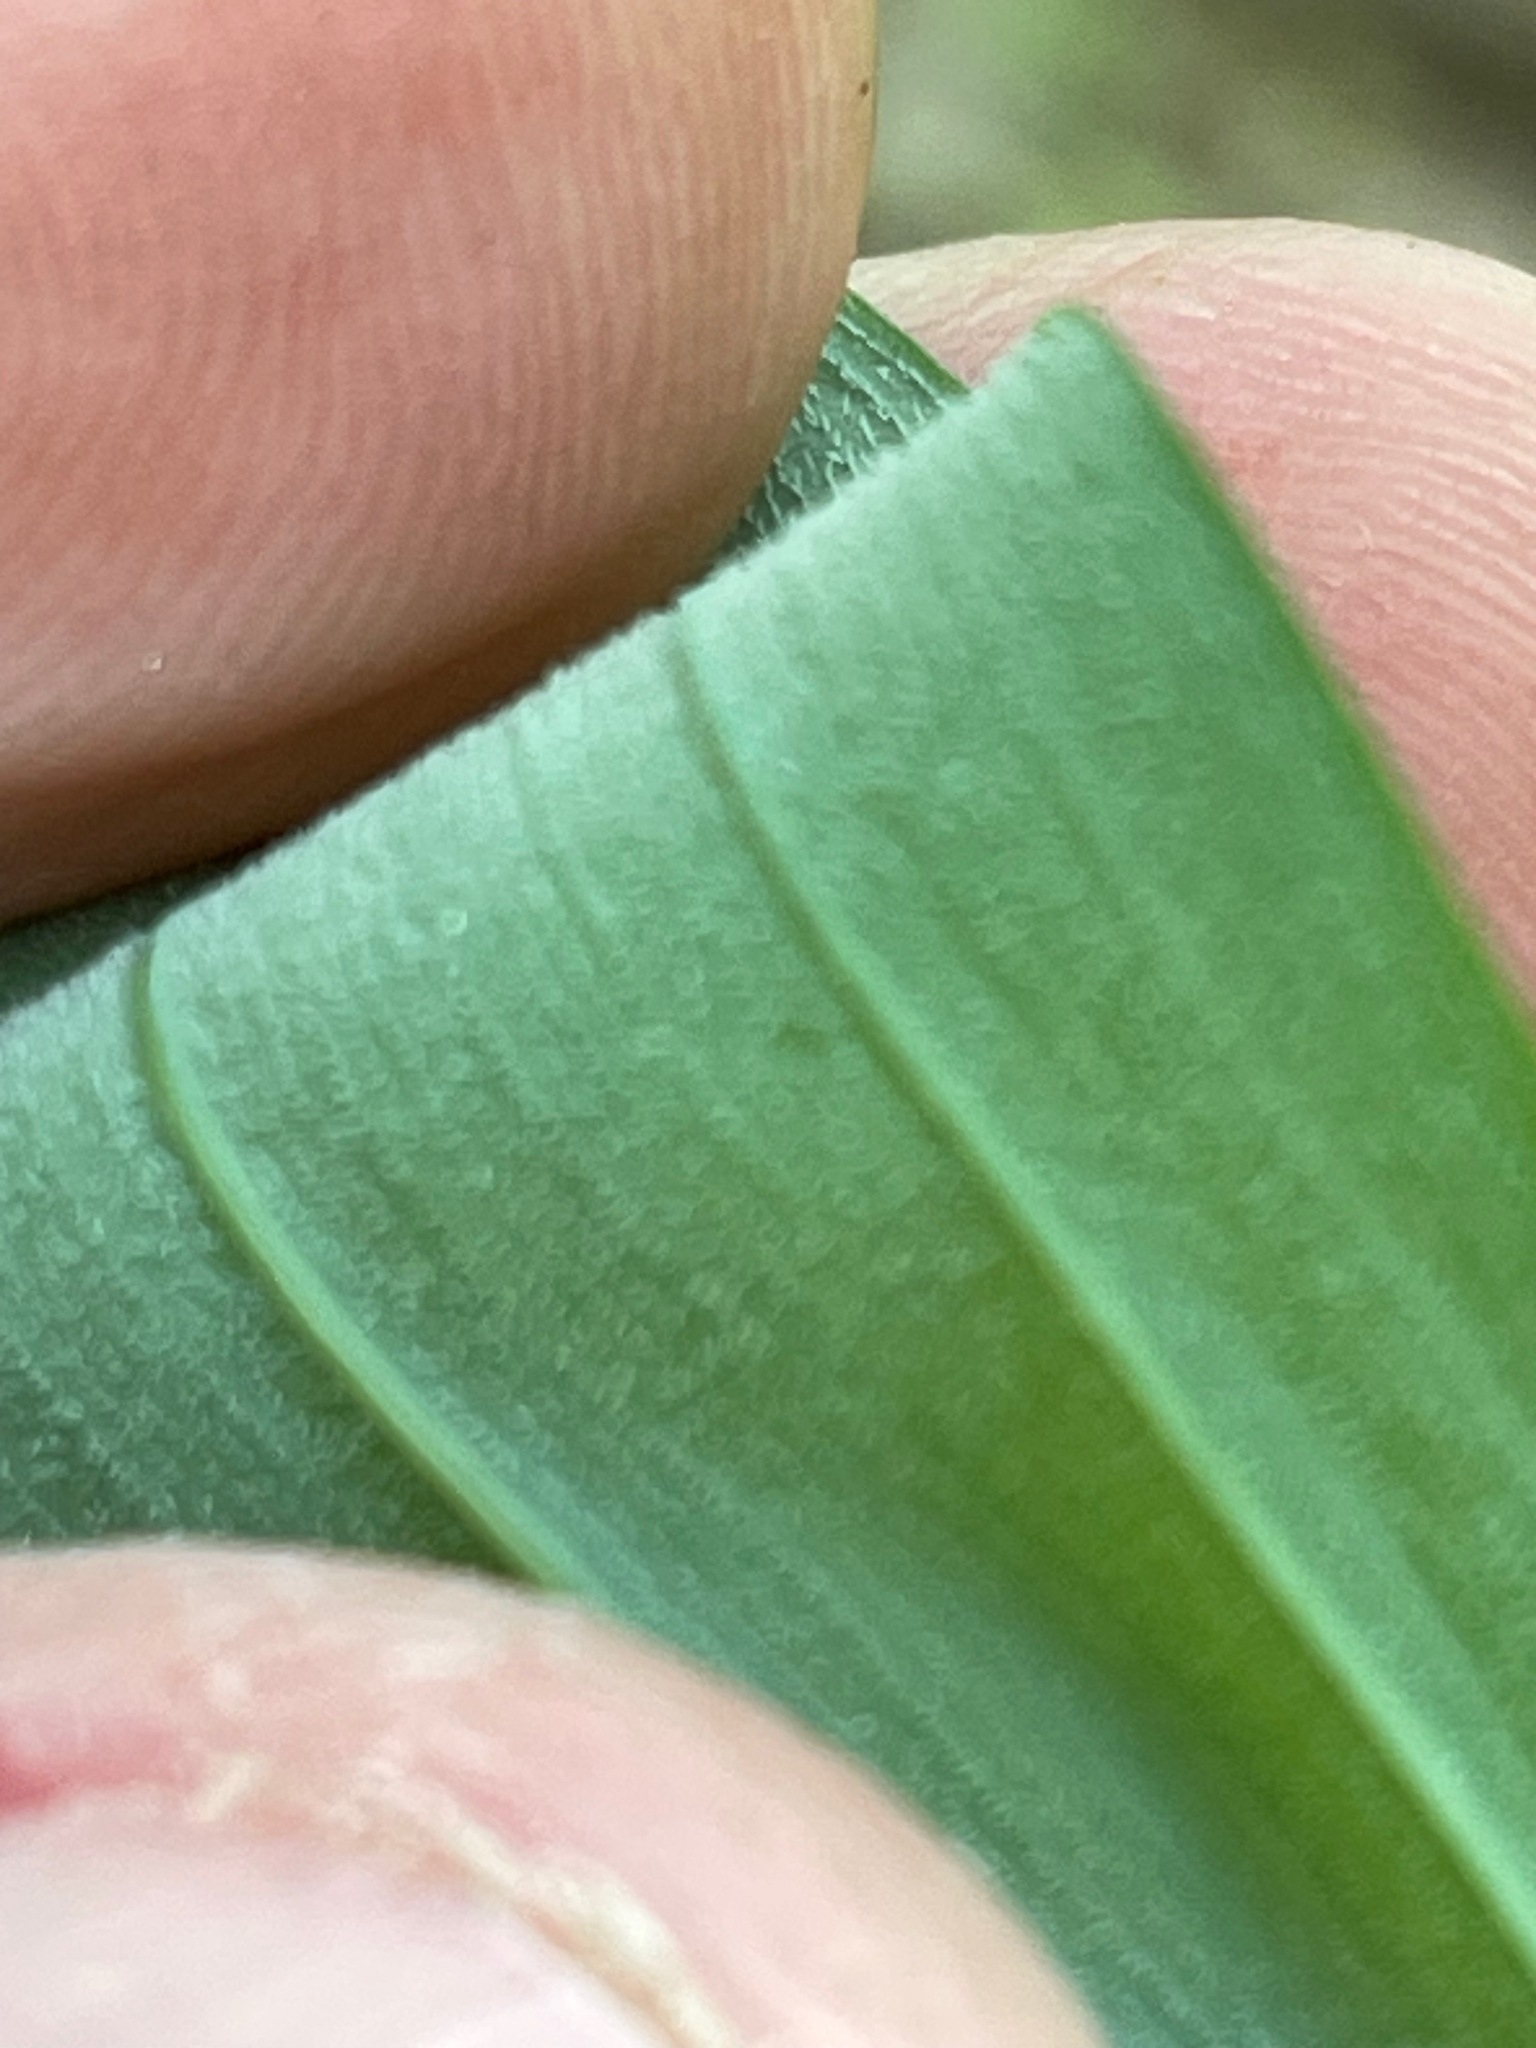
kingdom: Plantae
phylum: Tracheophyta
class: Liliopsida
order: Asparagales
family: Asparagaceae
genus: Polygonatum
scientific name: Polygonatum pubescens
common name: Downy solomon's seal
